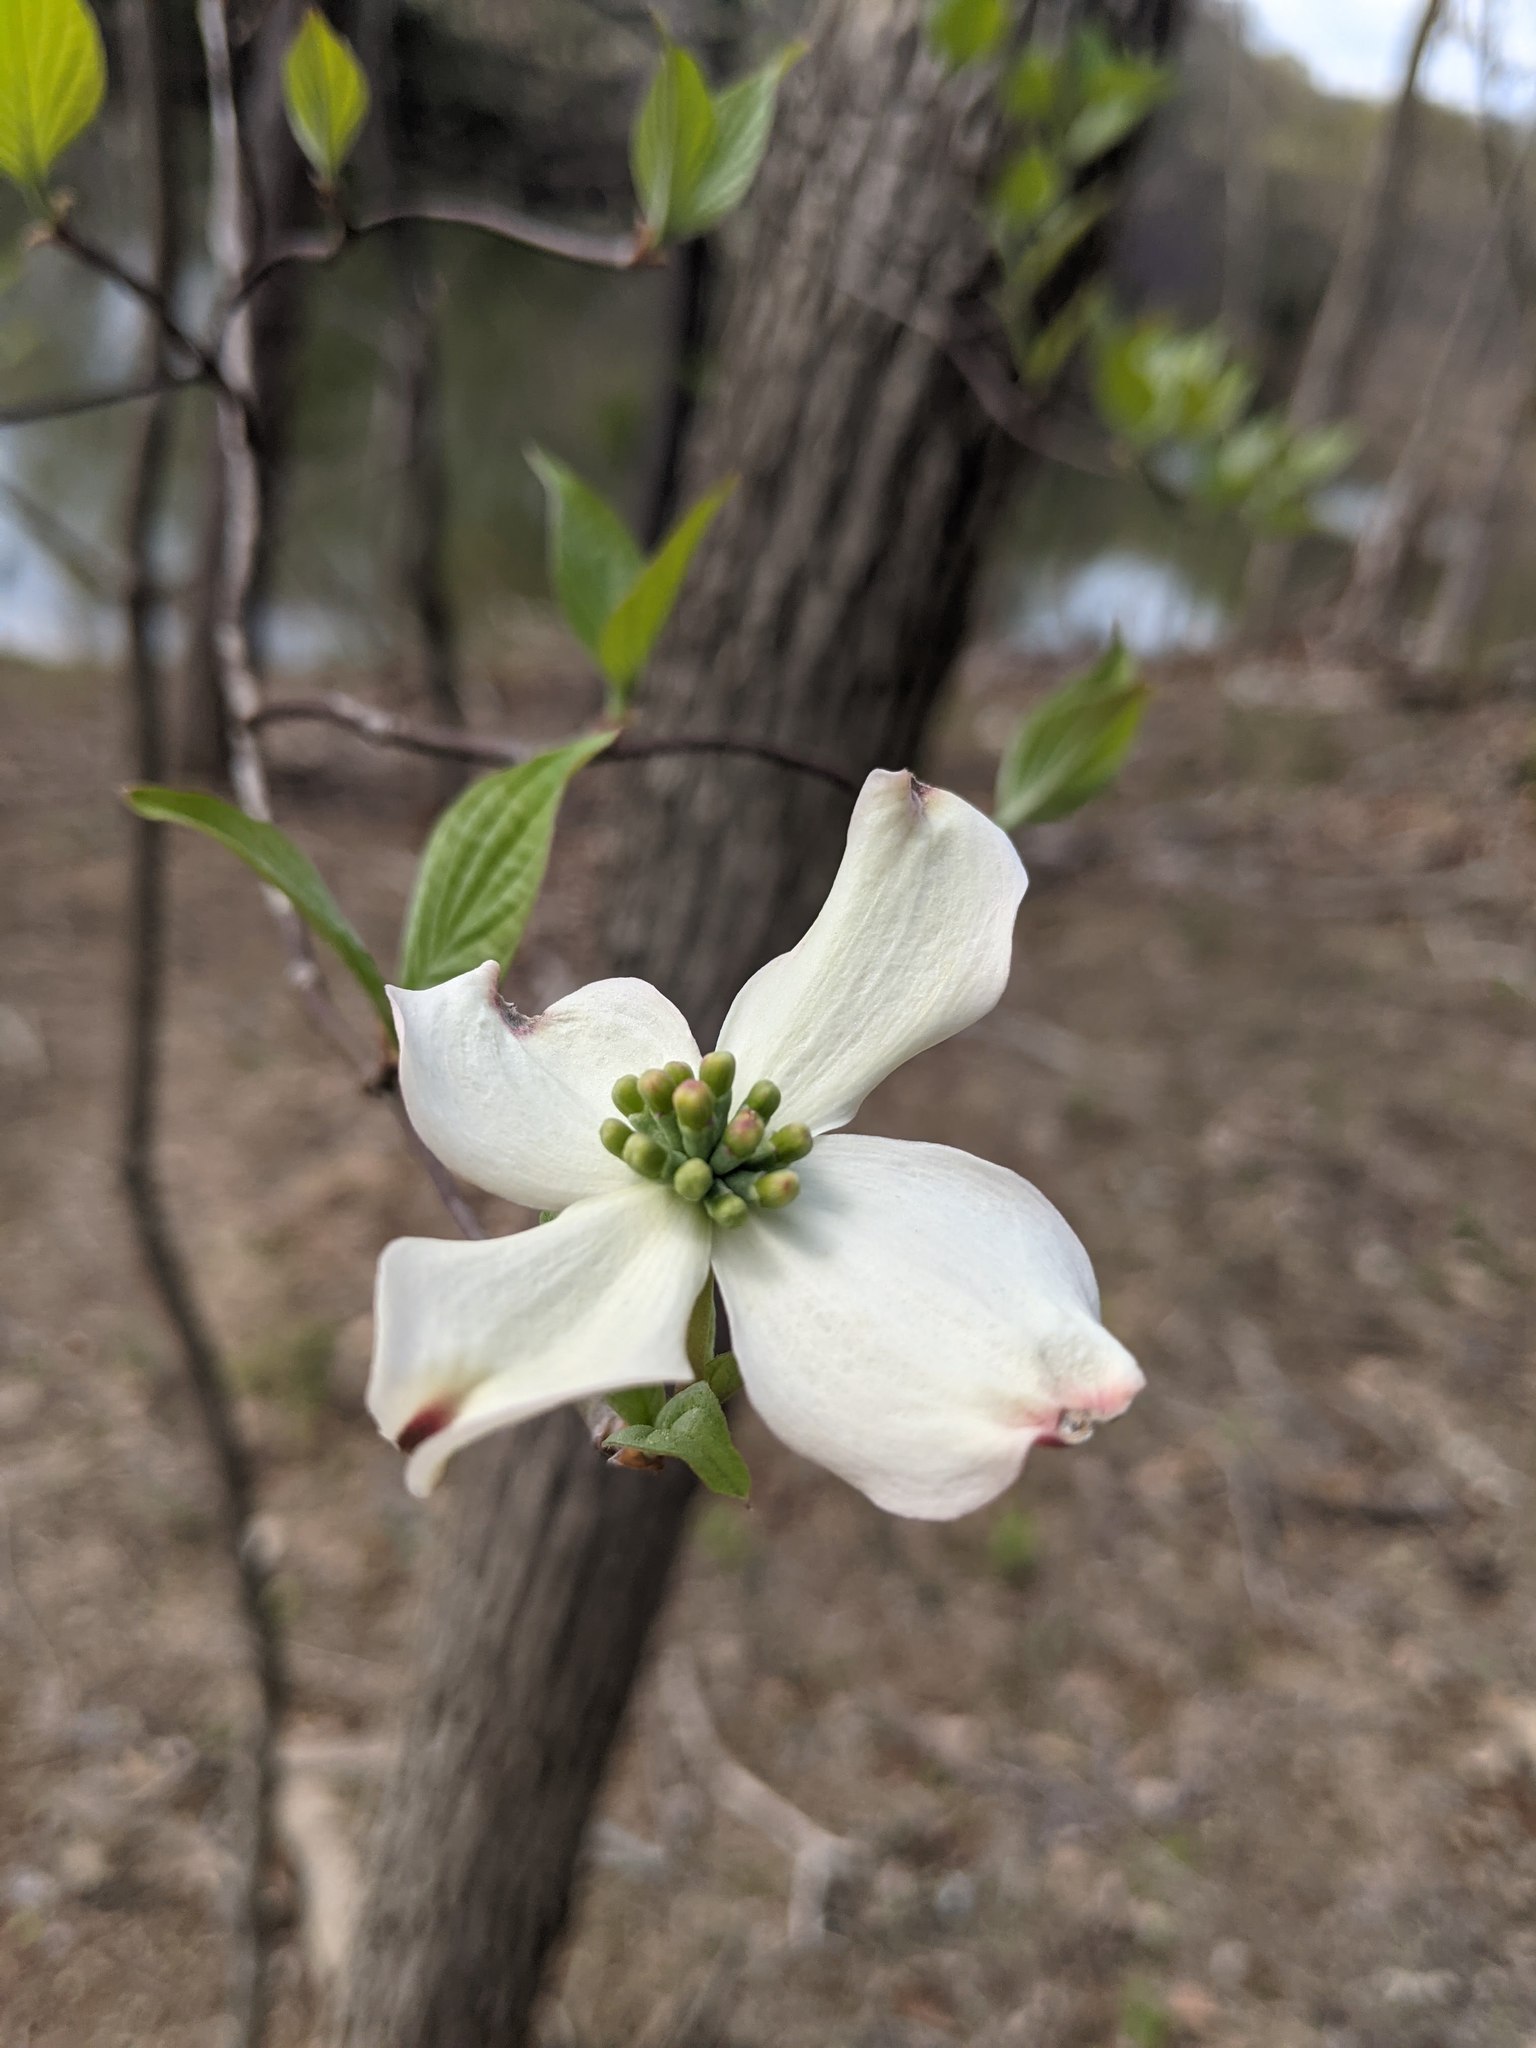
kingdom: Plantae
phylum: Tracheophyta
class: Magnoliopsida
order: Cornales
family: Cornaceae
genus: Cornus
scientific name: Cornus florida
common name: Flowering dogwood
